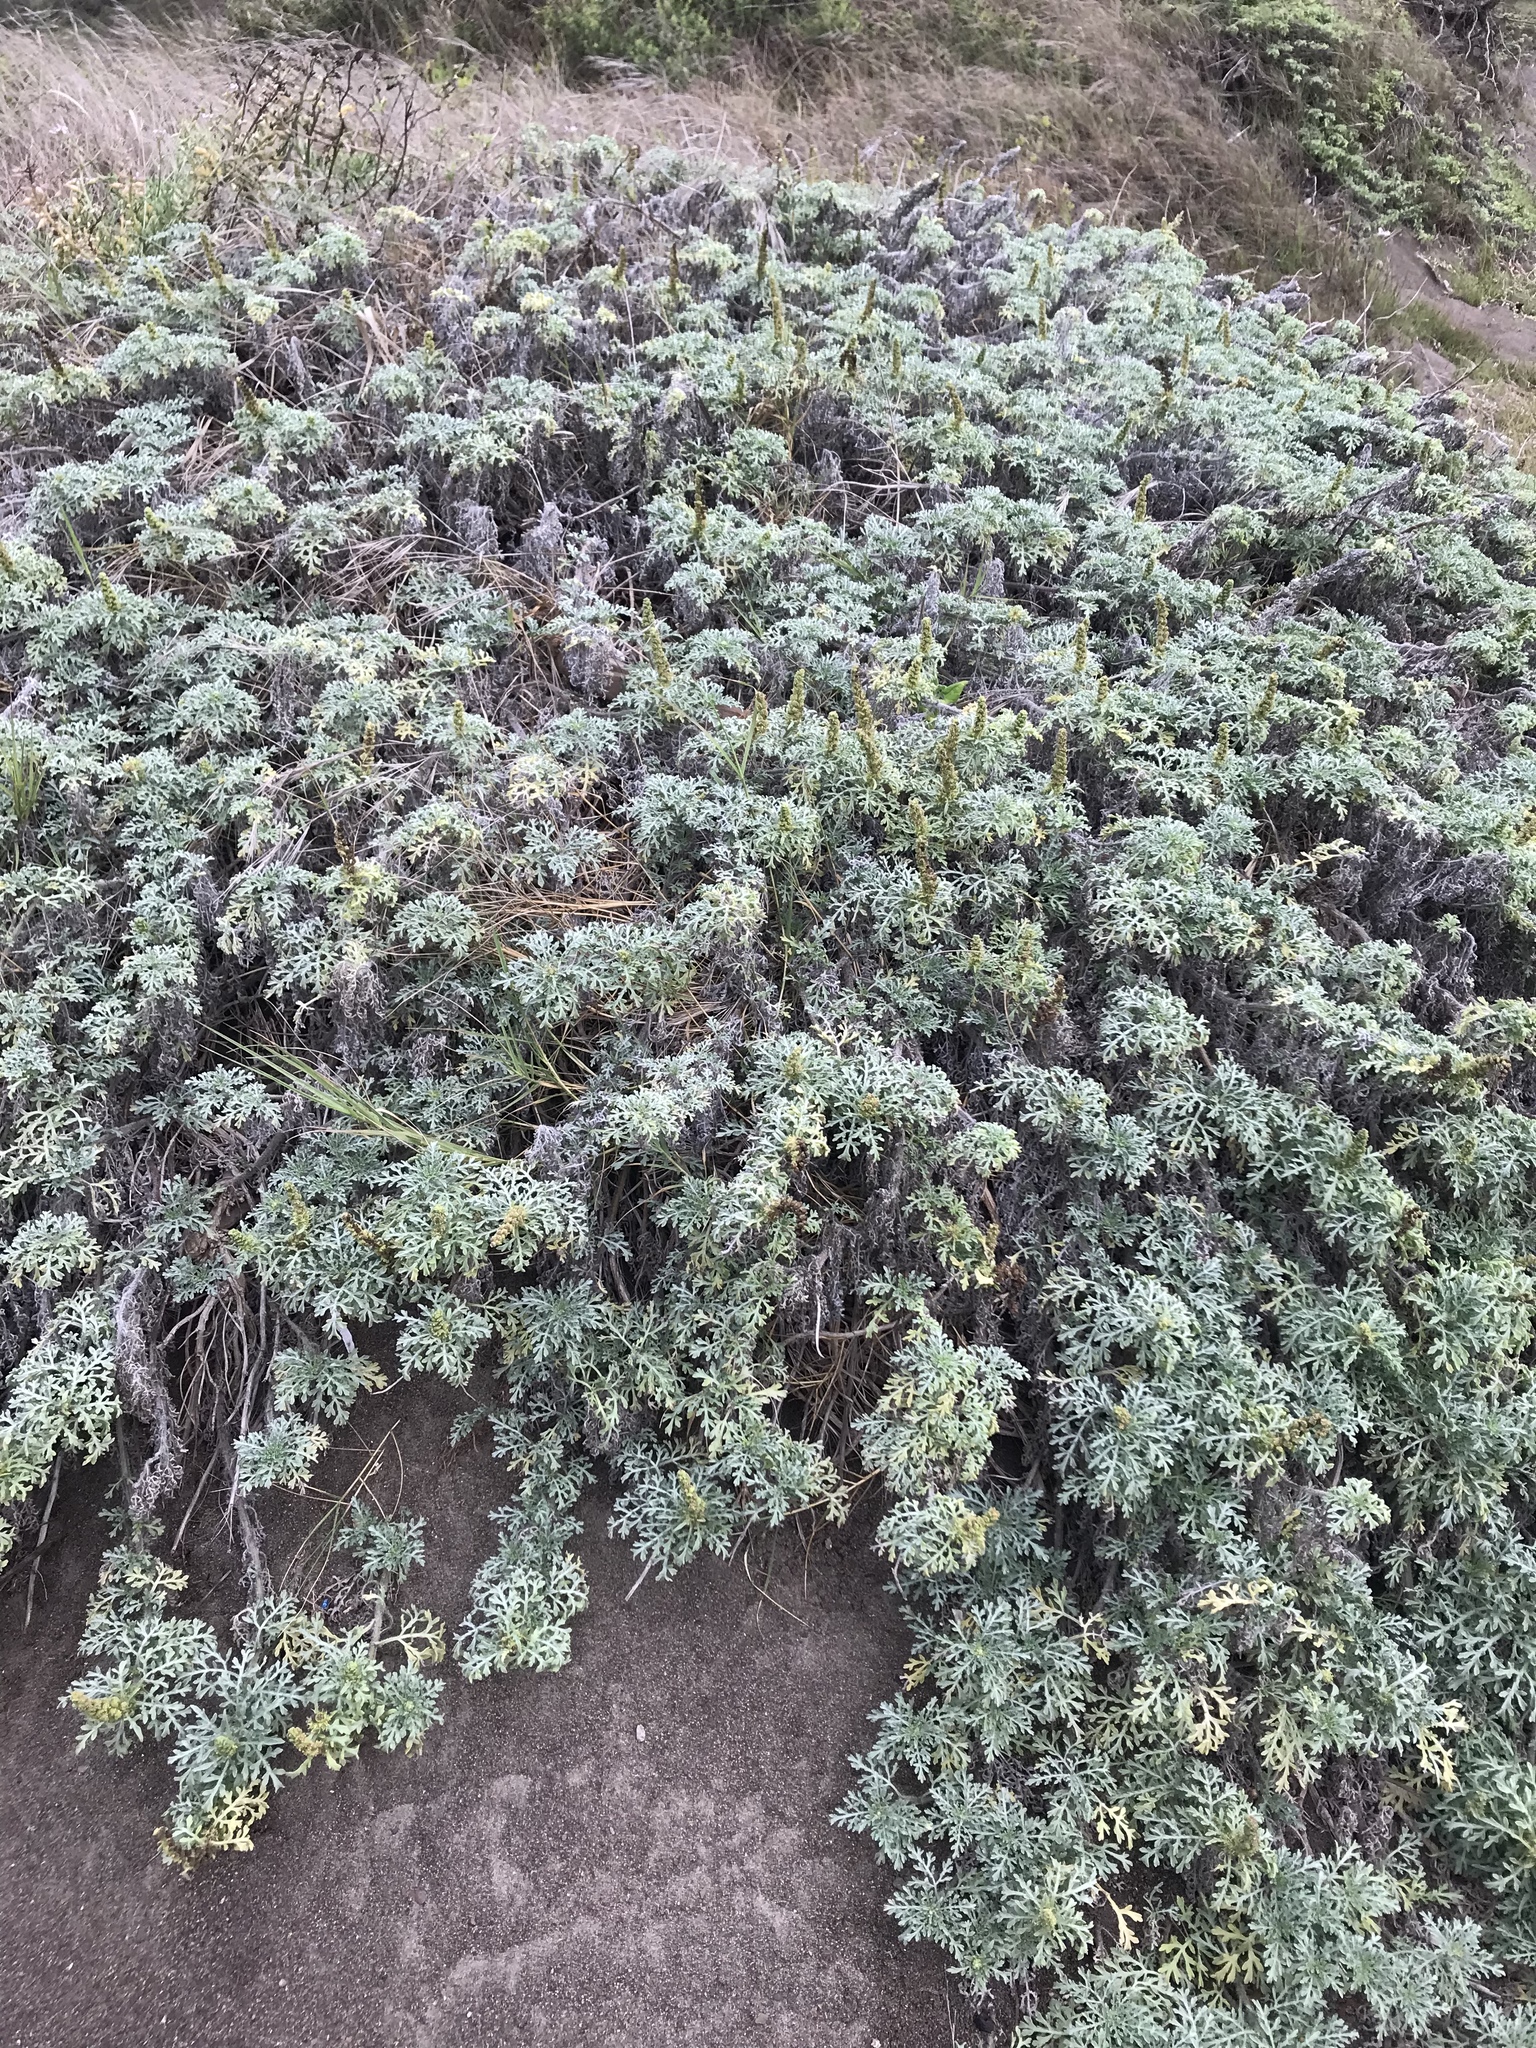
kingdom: Plantae
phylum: Tracheophyta
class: Magnoliopsida
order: Asterales
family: Asteraceae
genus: Ambrosia
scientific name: Ambrosia chamissonis
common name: Beachbur
